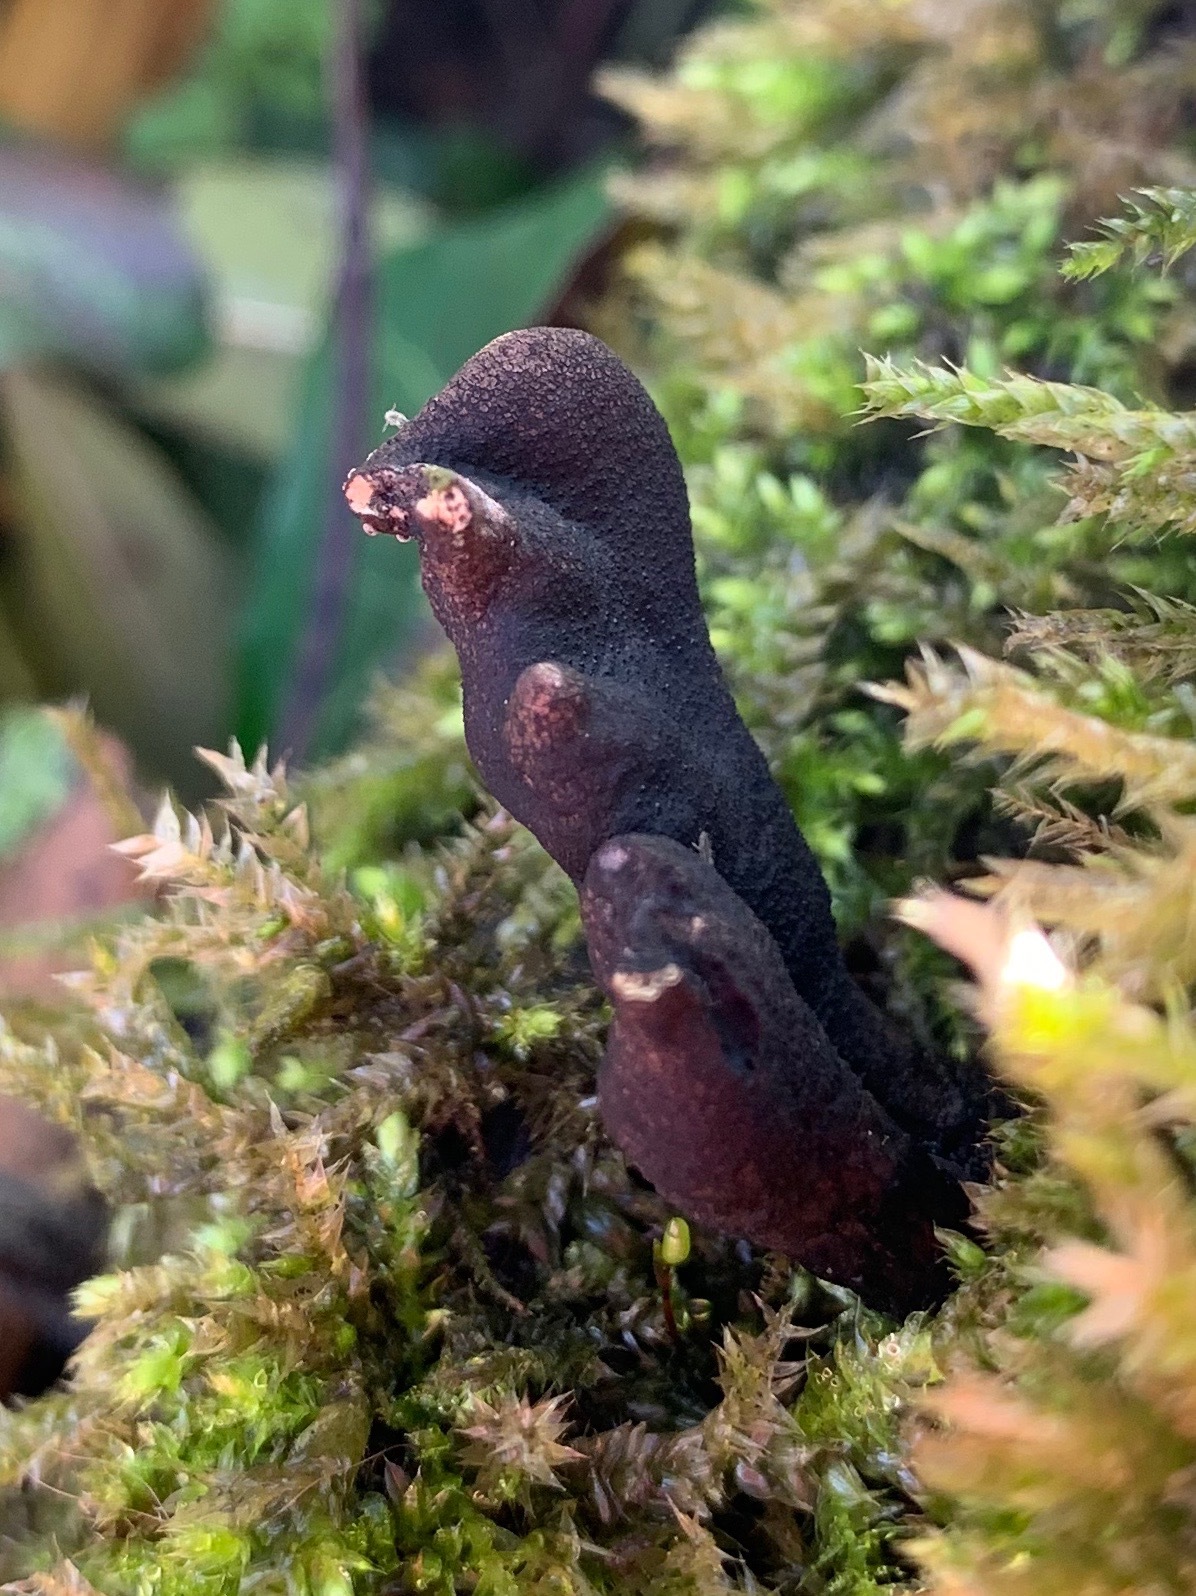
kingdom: Fungi
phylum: Ascomycota
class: Sordariomycetes
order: Xylariales
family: Xylariaceae
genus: Xylaria
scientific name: Xylaria polymorpha
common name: Dead man's fingers
